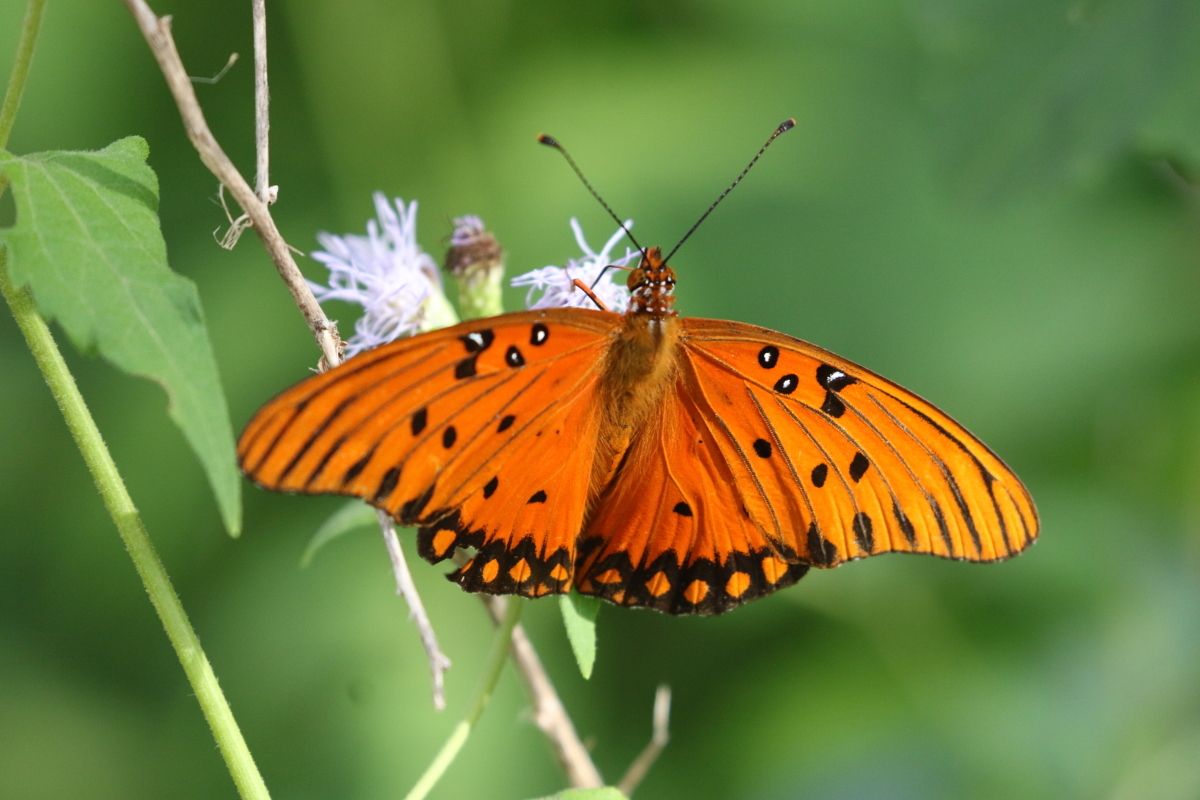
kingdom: Animalia
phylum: Arthropoda
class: Insecta
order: Lepidoptera
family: Nymphalidae
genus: Dione
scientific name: Dione vanillae
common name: Gulf fritillary
